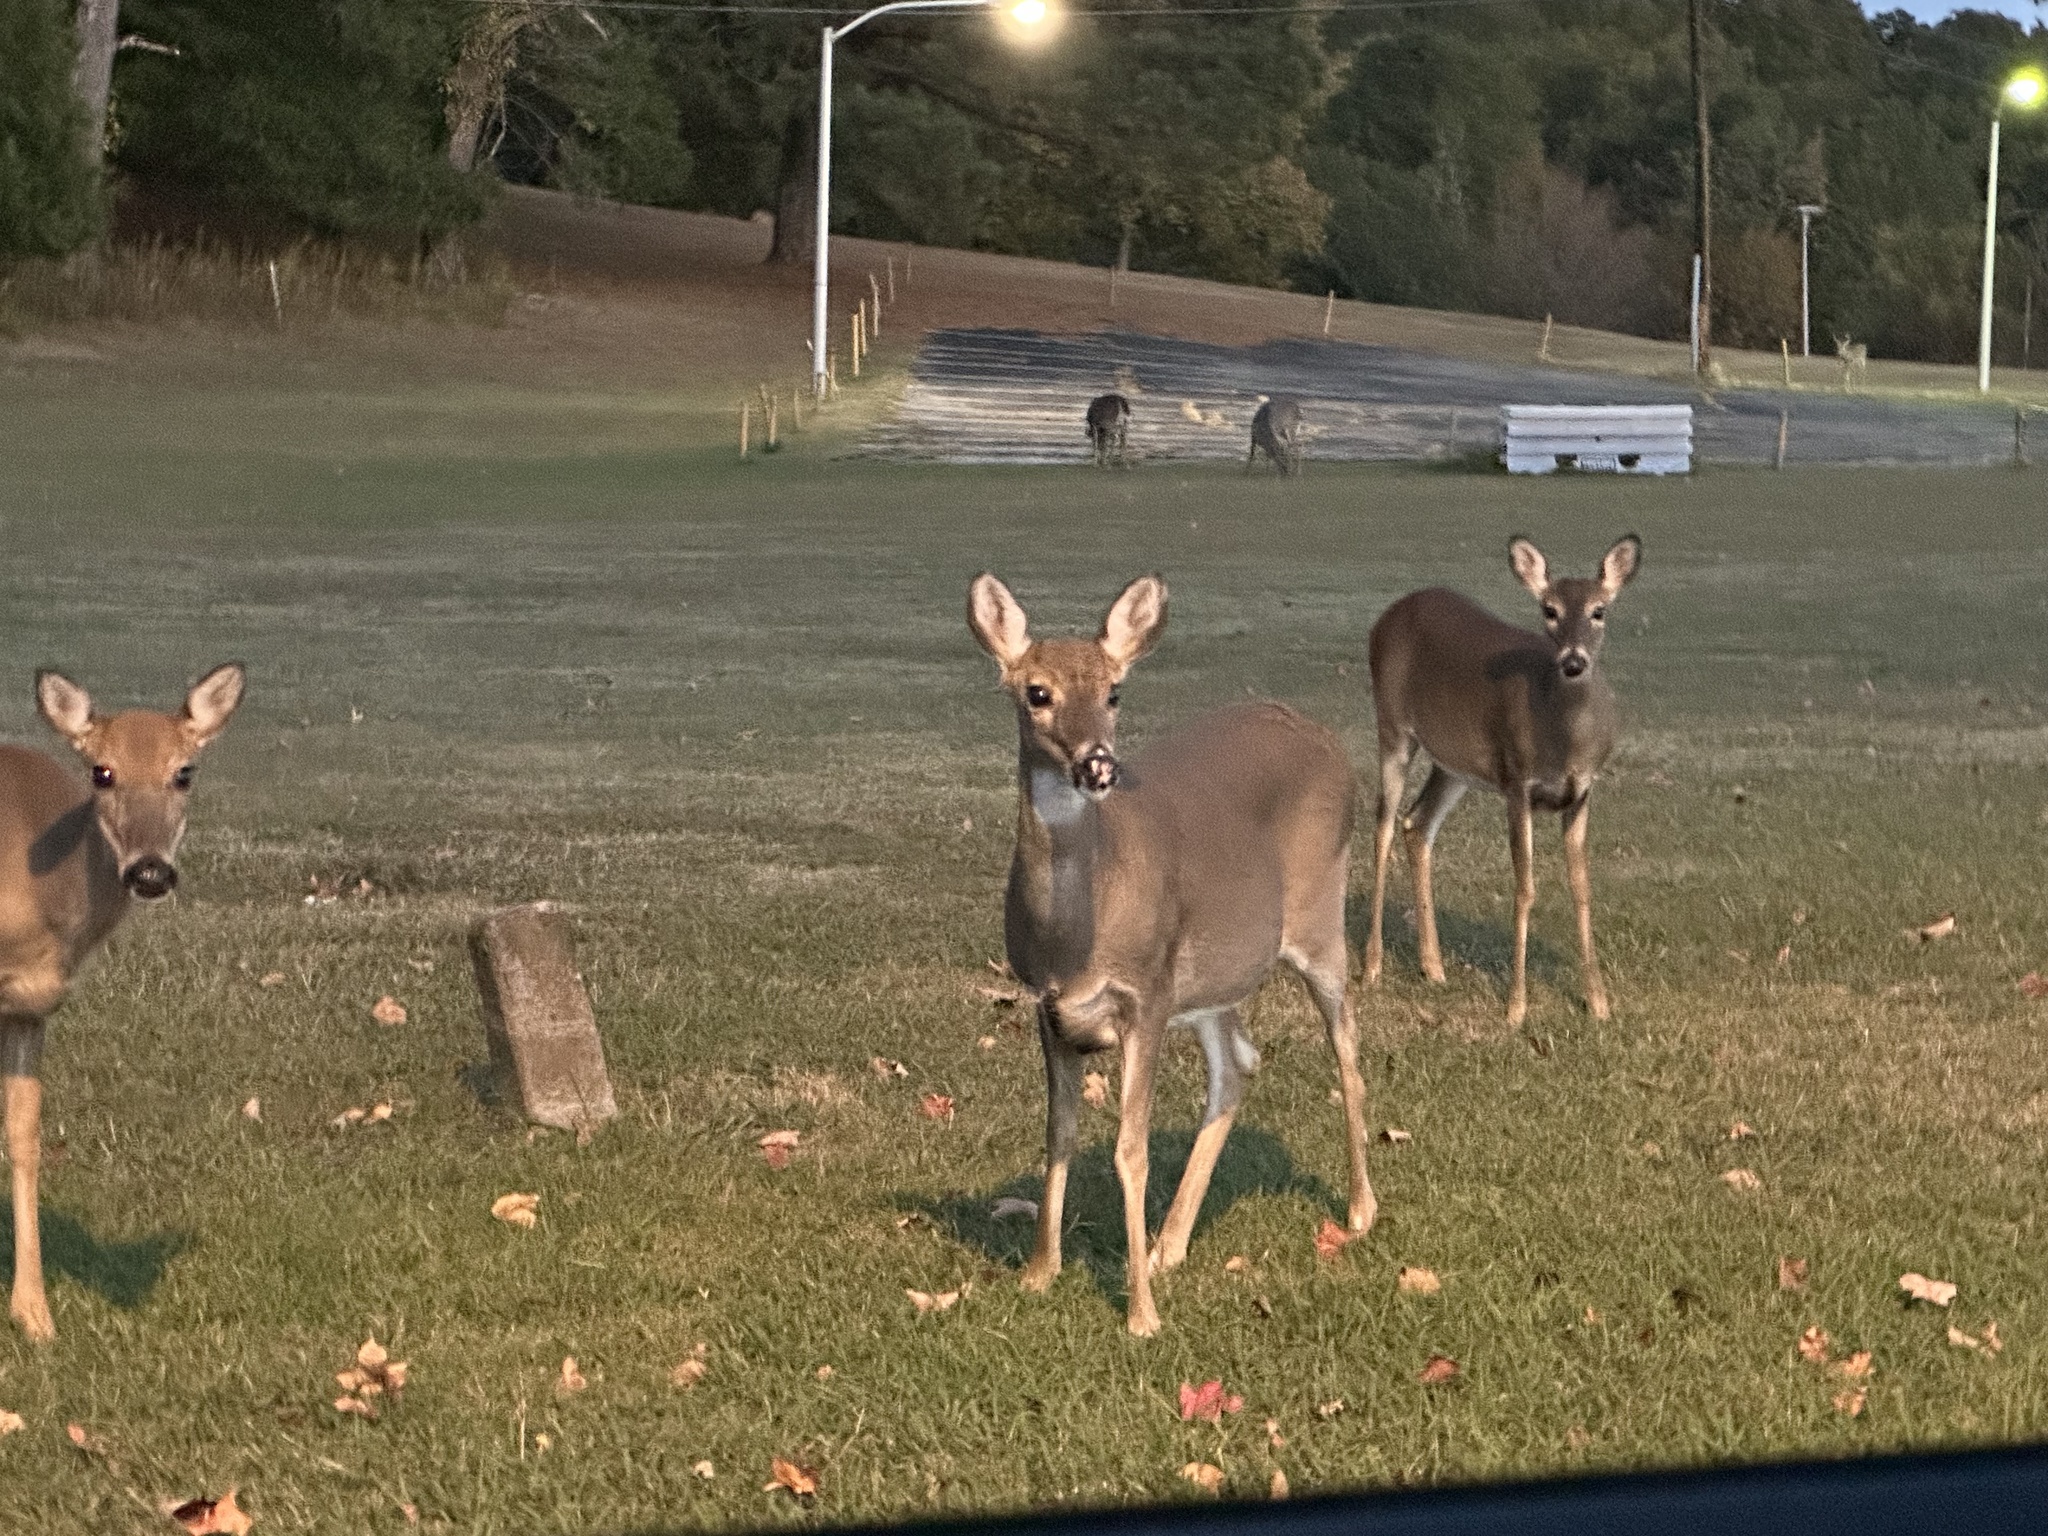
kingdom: Animalia
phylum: Chordata
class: Mammalia
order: Artiodactyla
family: Cervidae
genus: Odocoileus
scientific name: Odocoileus virginianus
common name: White-tailed deer
